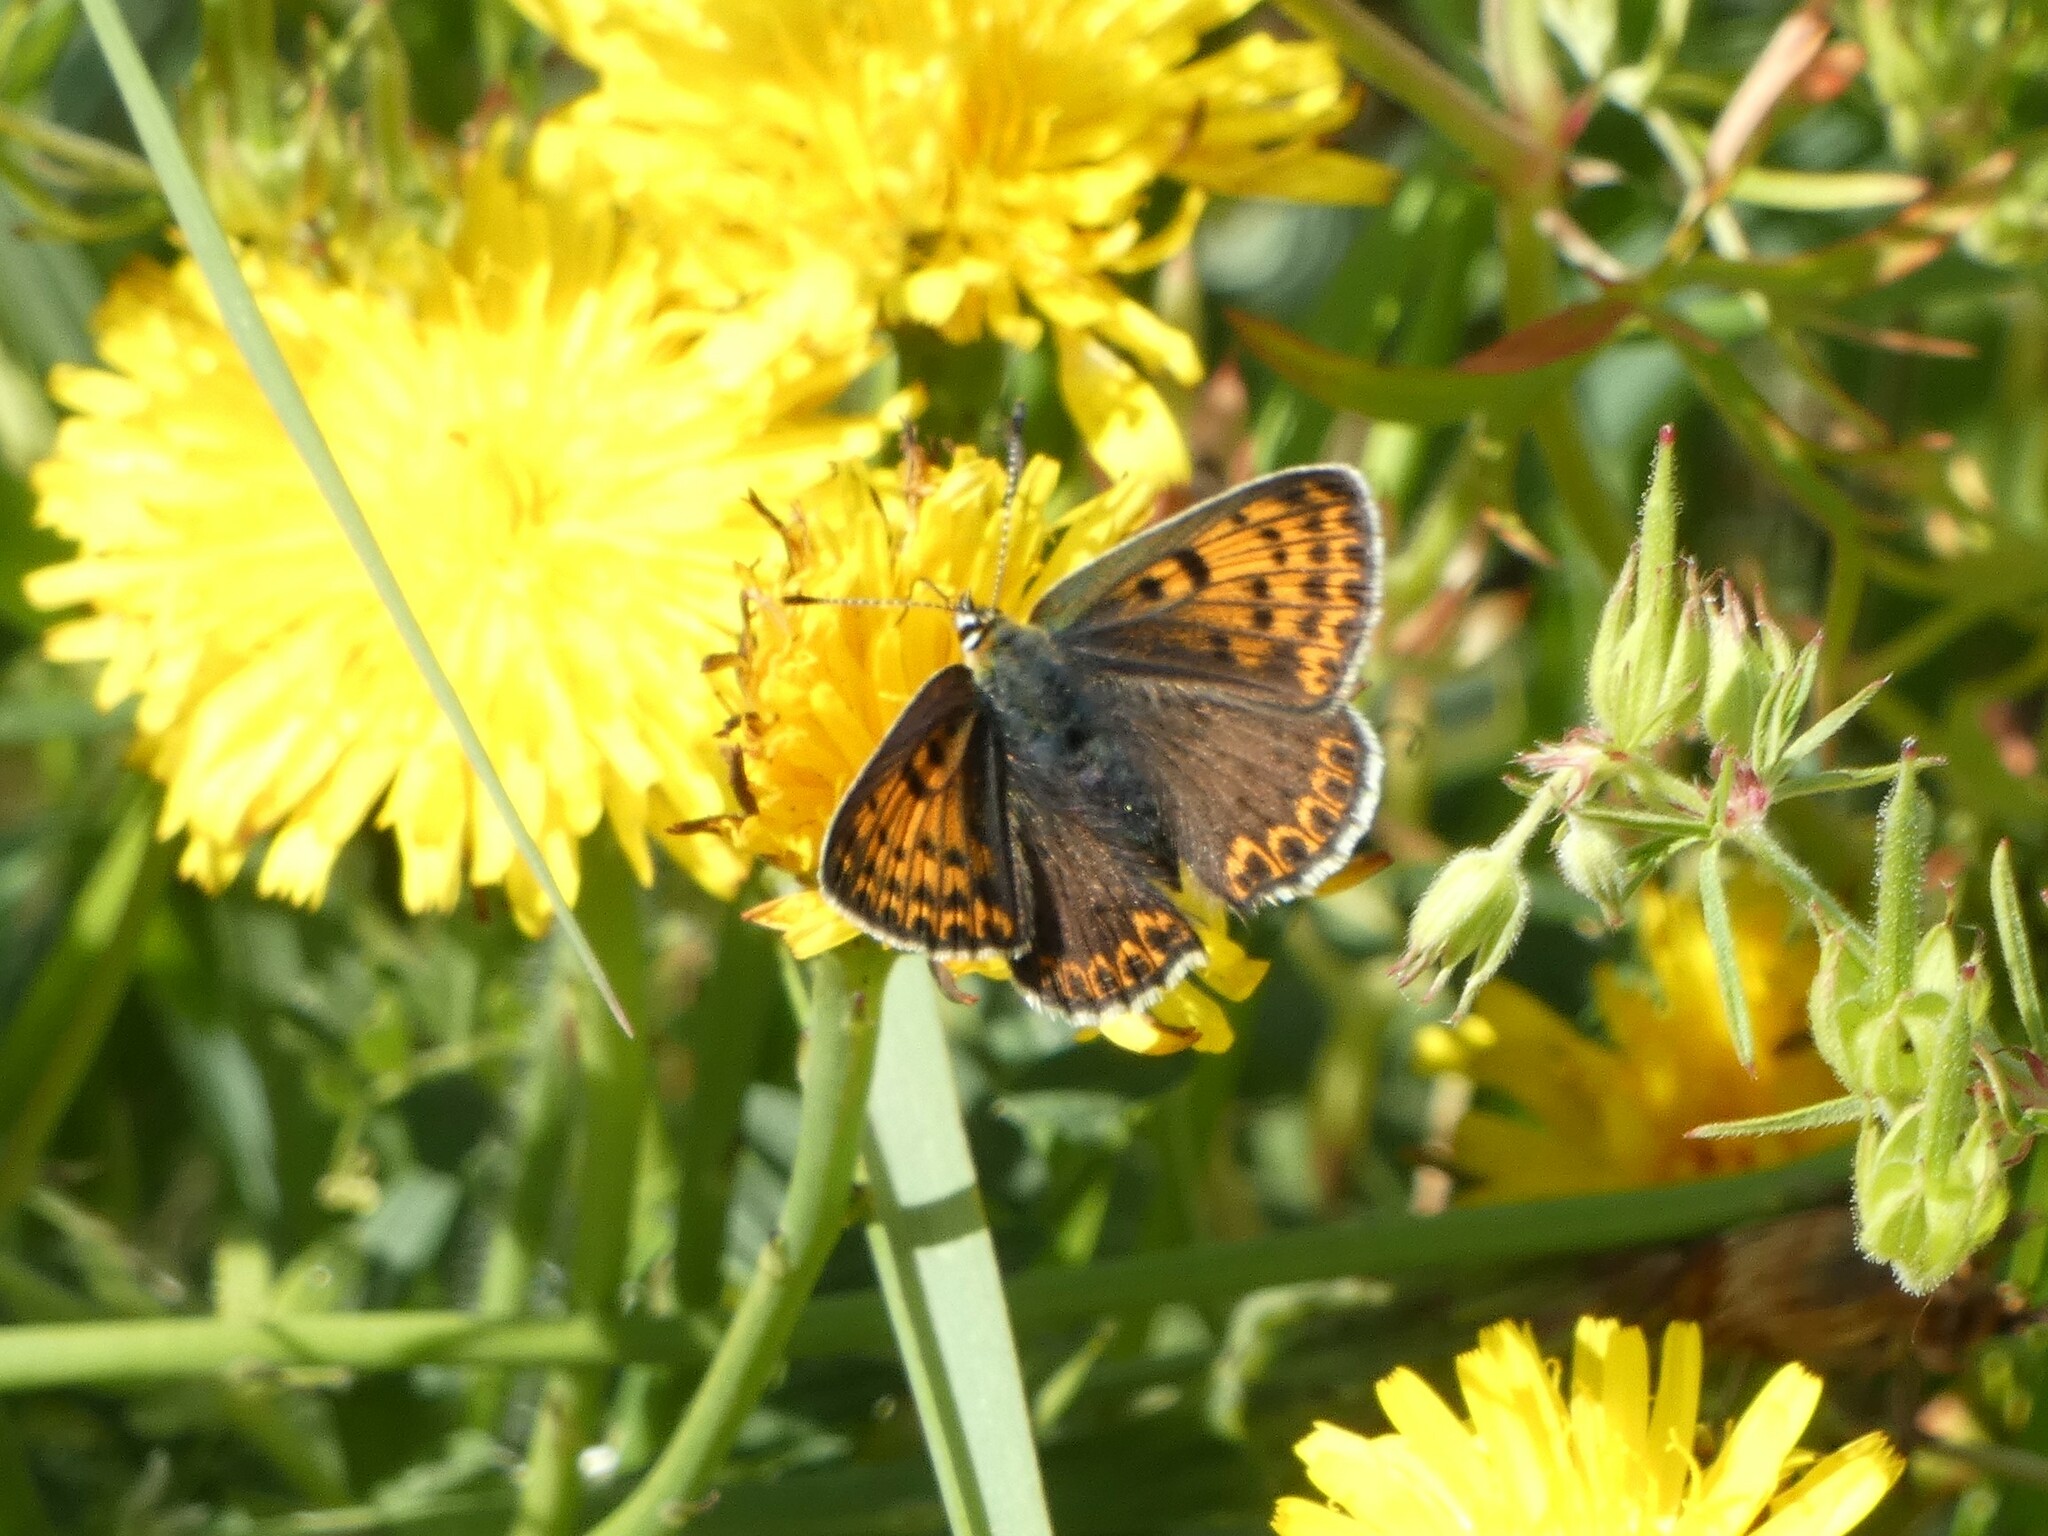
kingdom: Animalia
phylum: Arthropoda
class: Insecta
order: Lepidoptera
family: Lycaenidae
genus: Loweia
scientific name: Loweia tityrus
